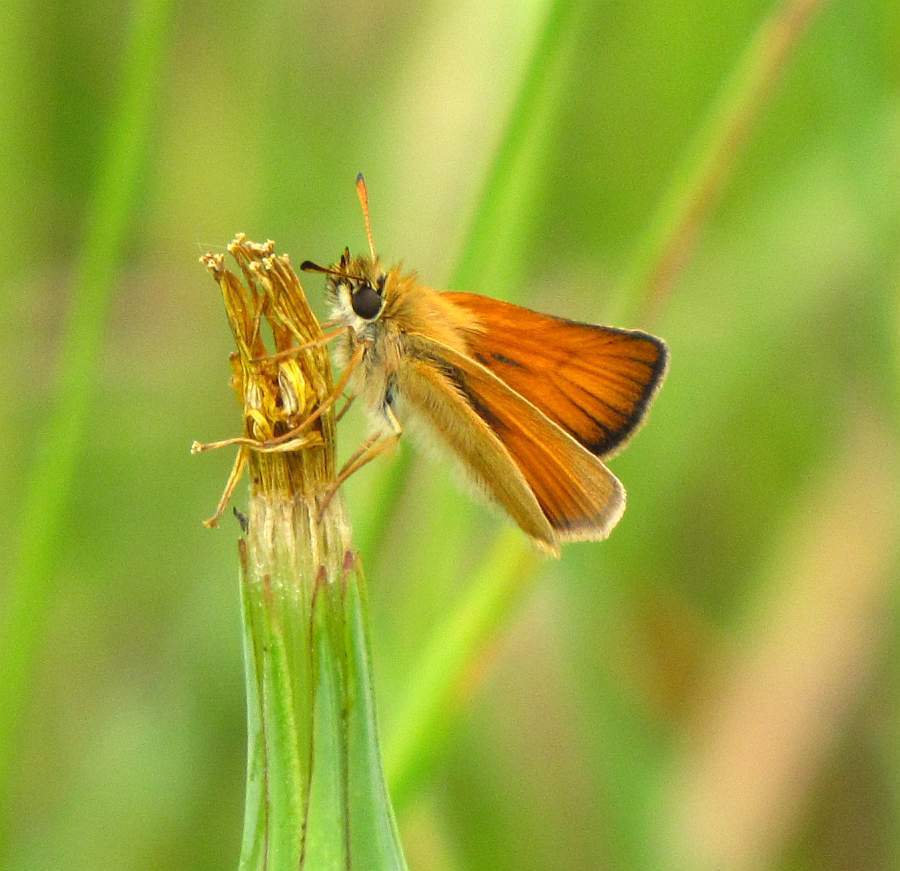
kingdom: Animalia
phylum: Arthropoda
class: Insecta
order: Lepidoptera
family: Hesperiidae
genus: Thymelicus
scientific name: Thymelicus lineola
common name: Essex skipper
